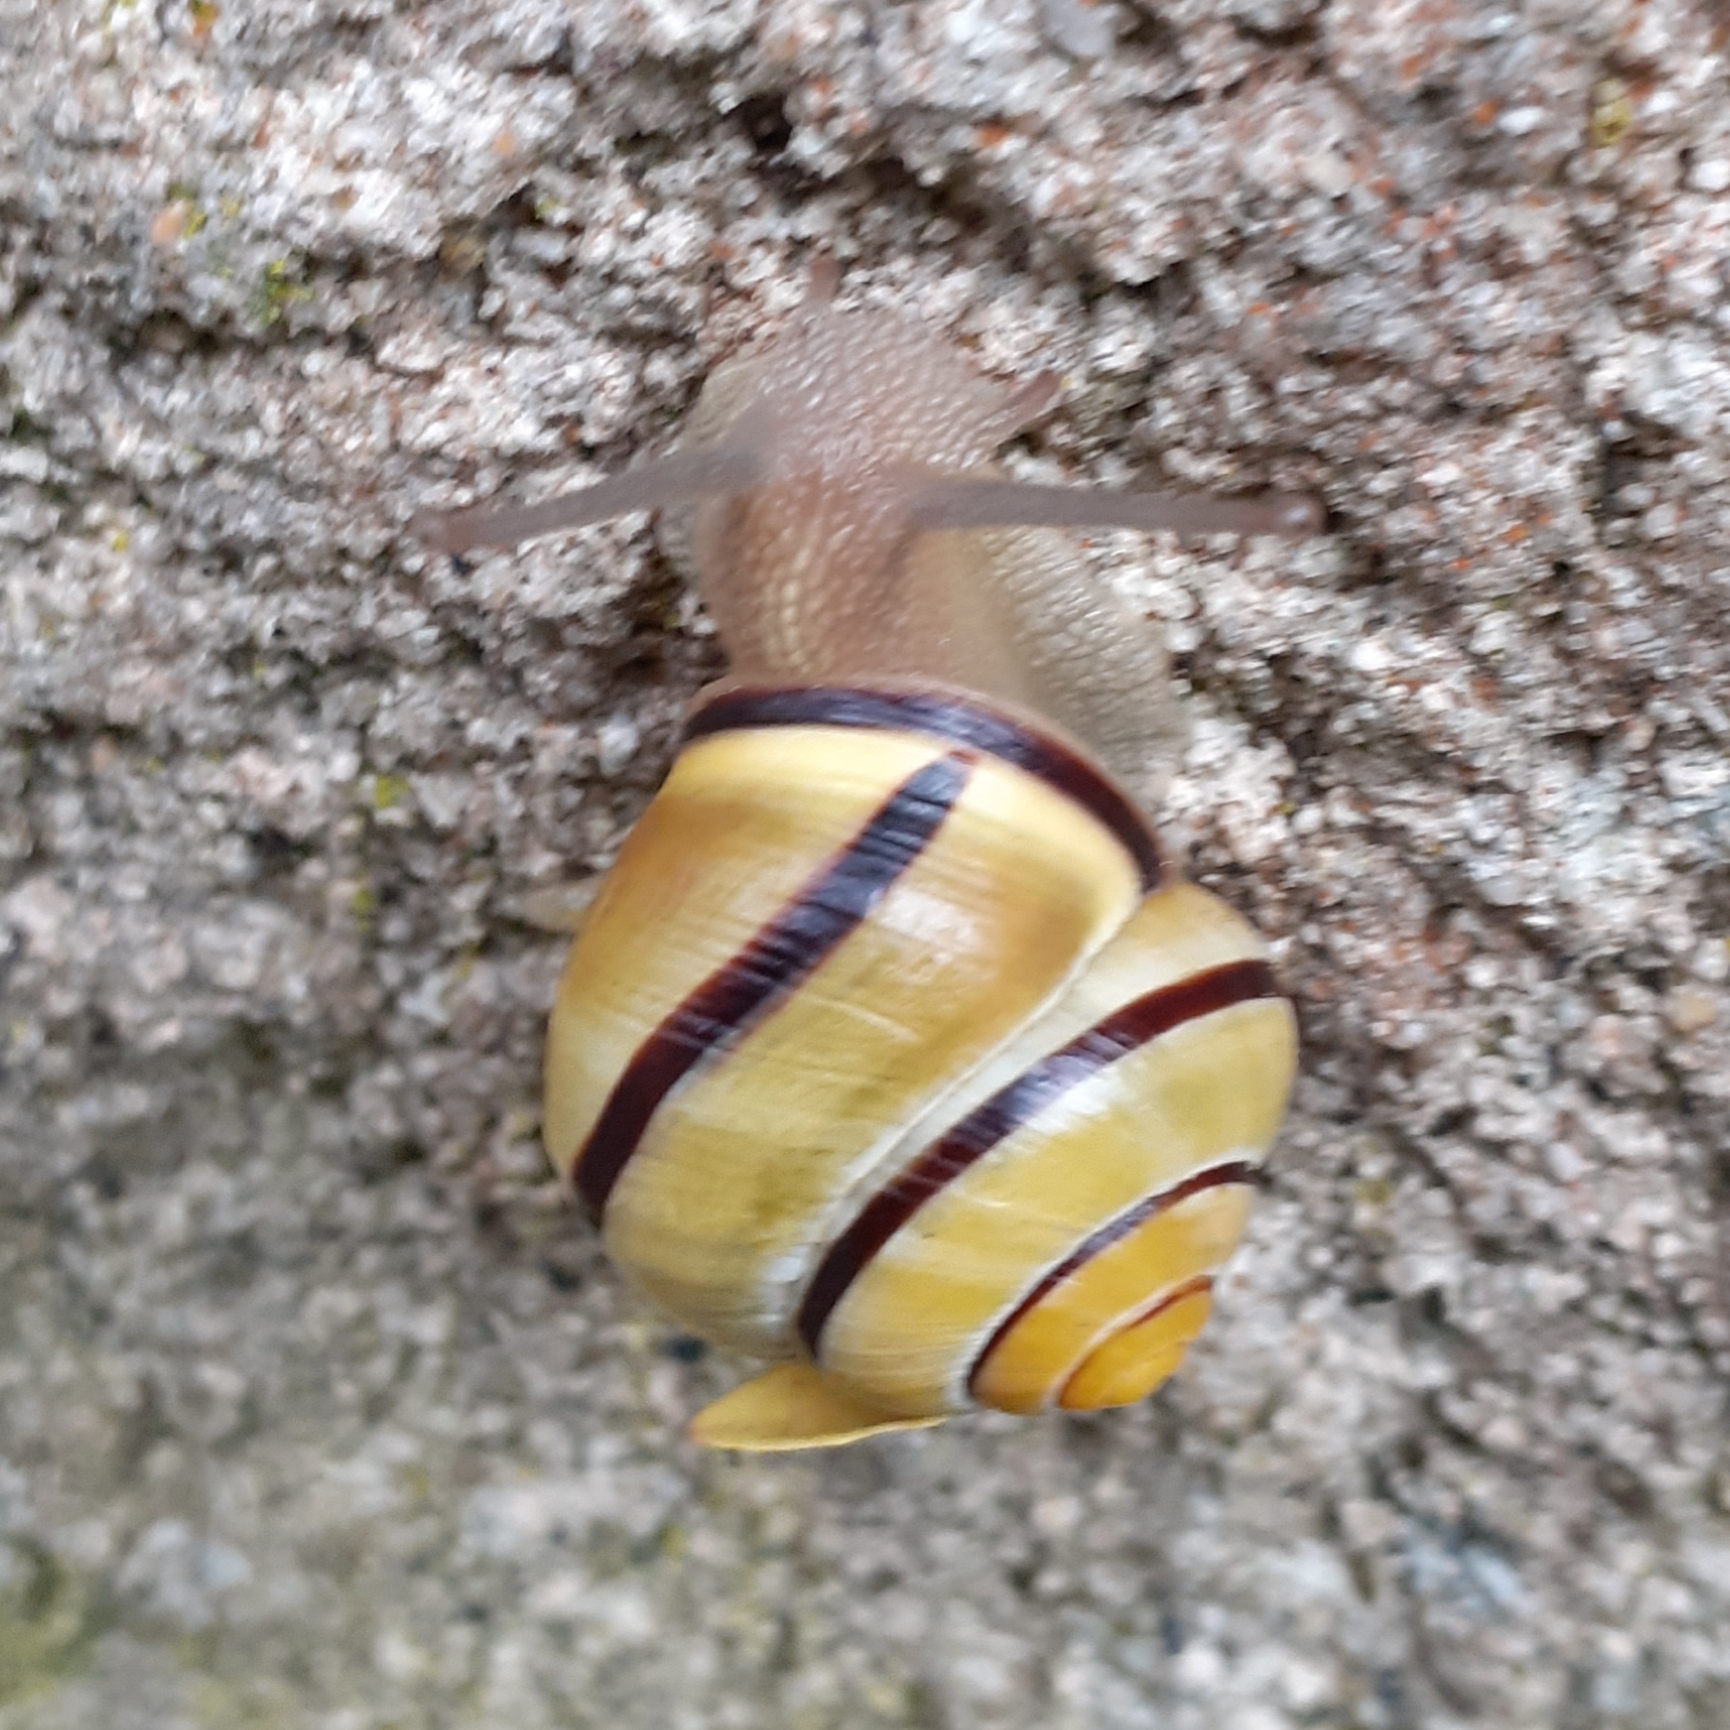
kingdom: Animalia
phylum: Mollusca
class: Gastropoda
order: Stylommatophora
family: Helicidae
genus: Cepaea
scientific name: Cepaea nemoralis
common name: Grovesnail
